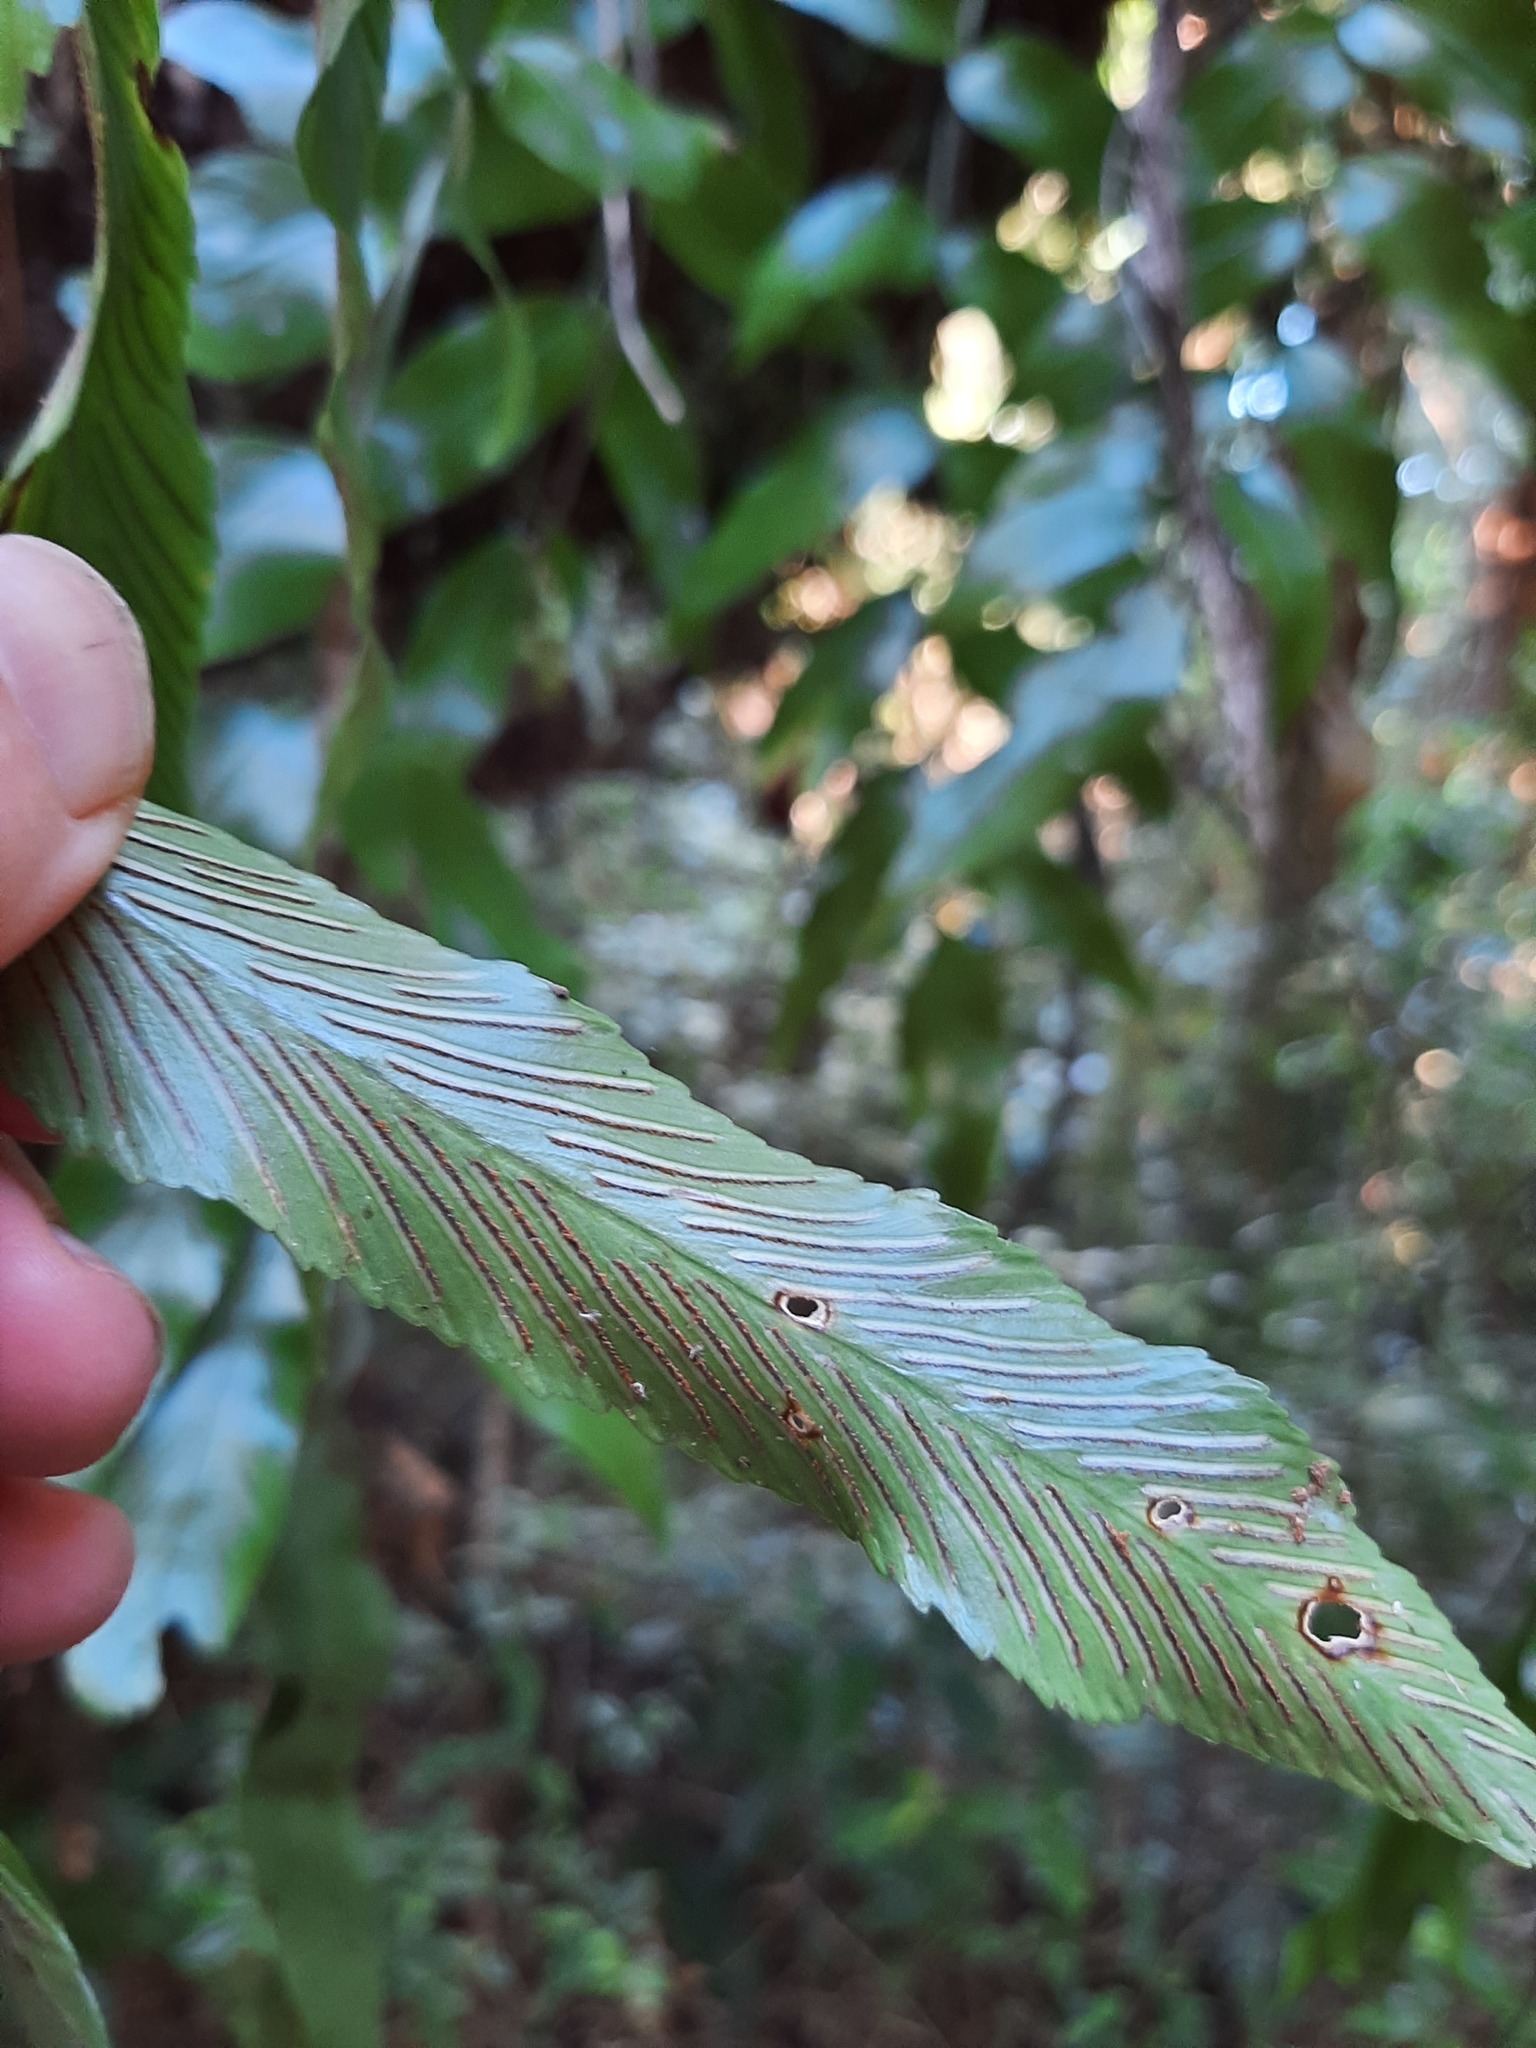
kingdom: Plantae
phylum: Tracheophyta
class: Polypodiopsida
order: Polypodiales
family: Aspleniaceae
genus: Asplenium
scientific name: Asplenium oblongifolium
